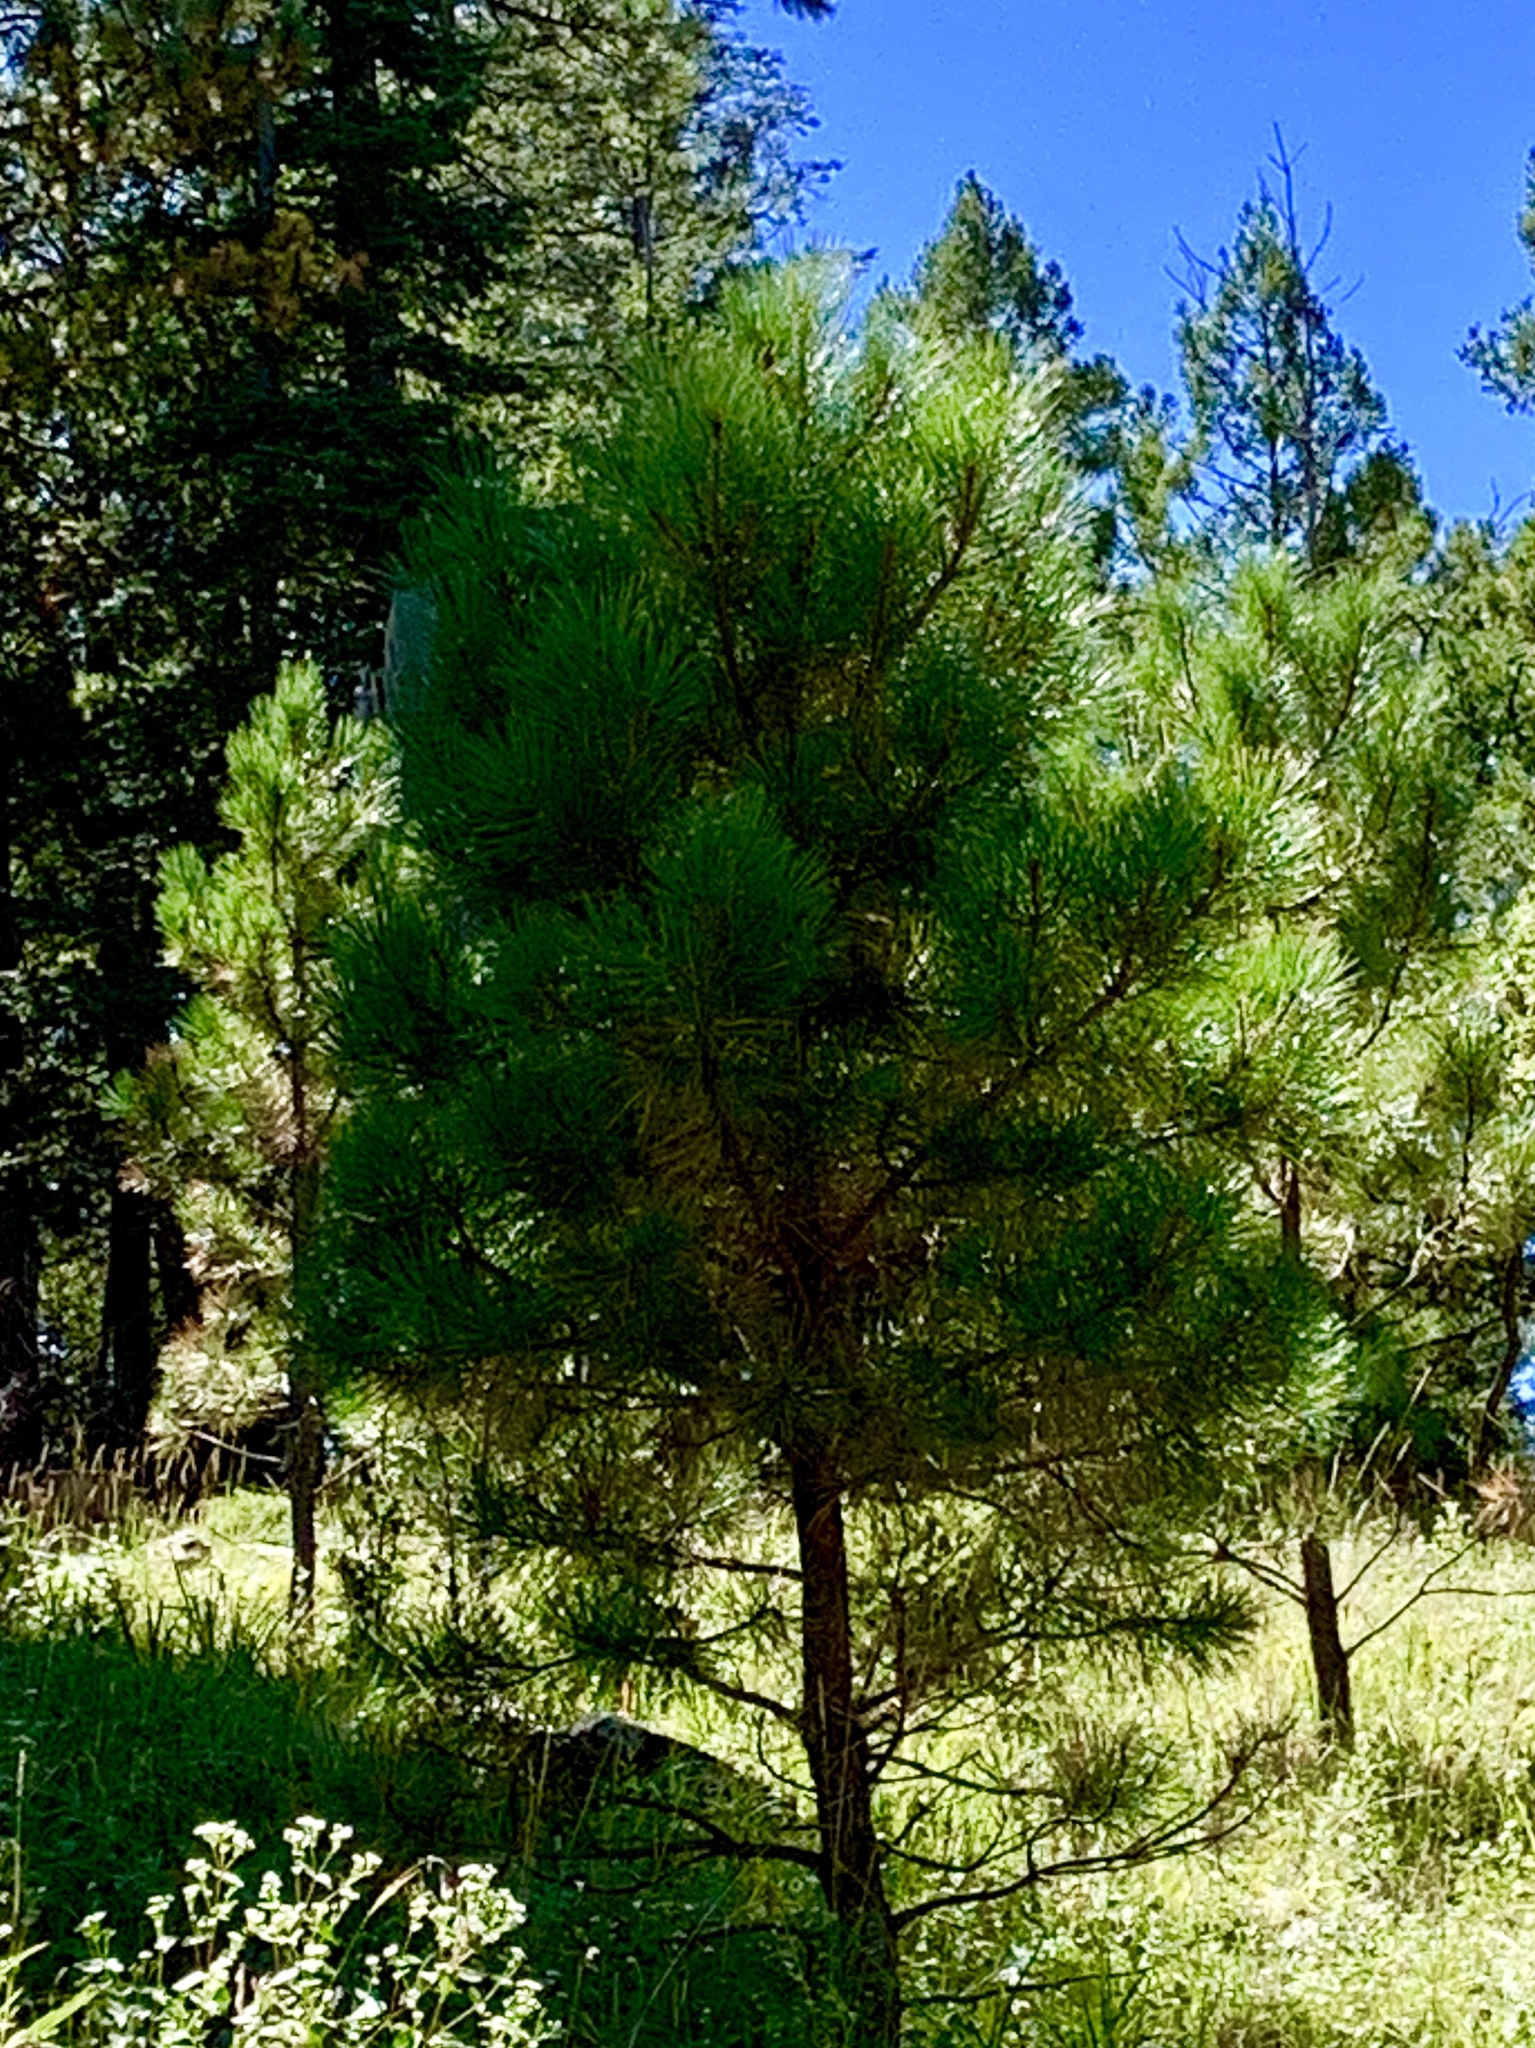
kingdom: Plantae
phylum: Tracheophyta
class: Pinopsida
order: Pinales
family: Pinaceae
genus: Pinus
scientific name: Pinus ponderosa
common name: Western yellow-pine
